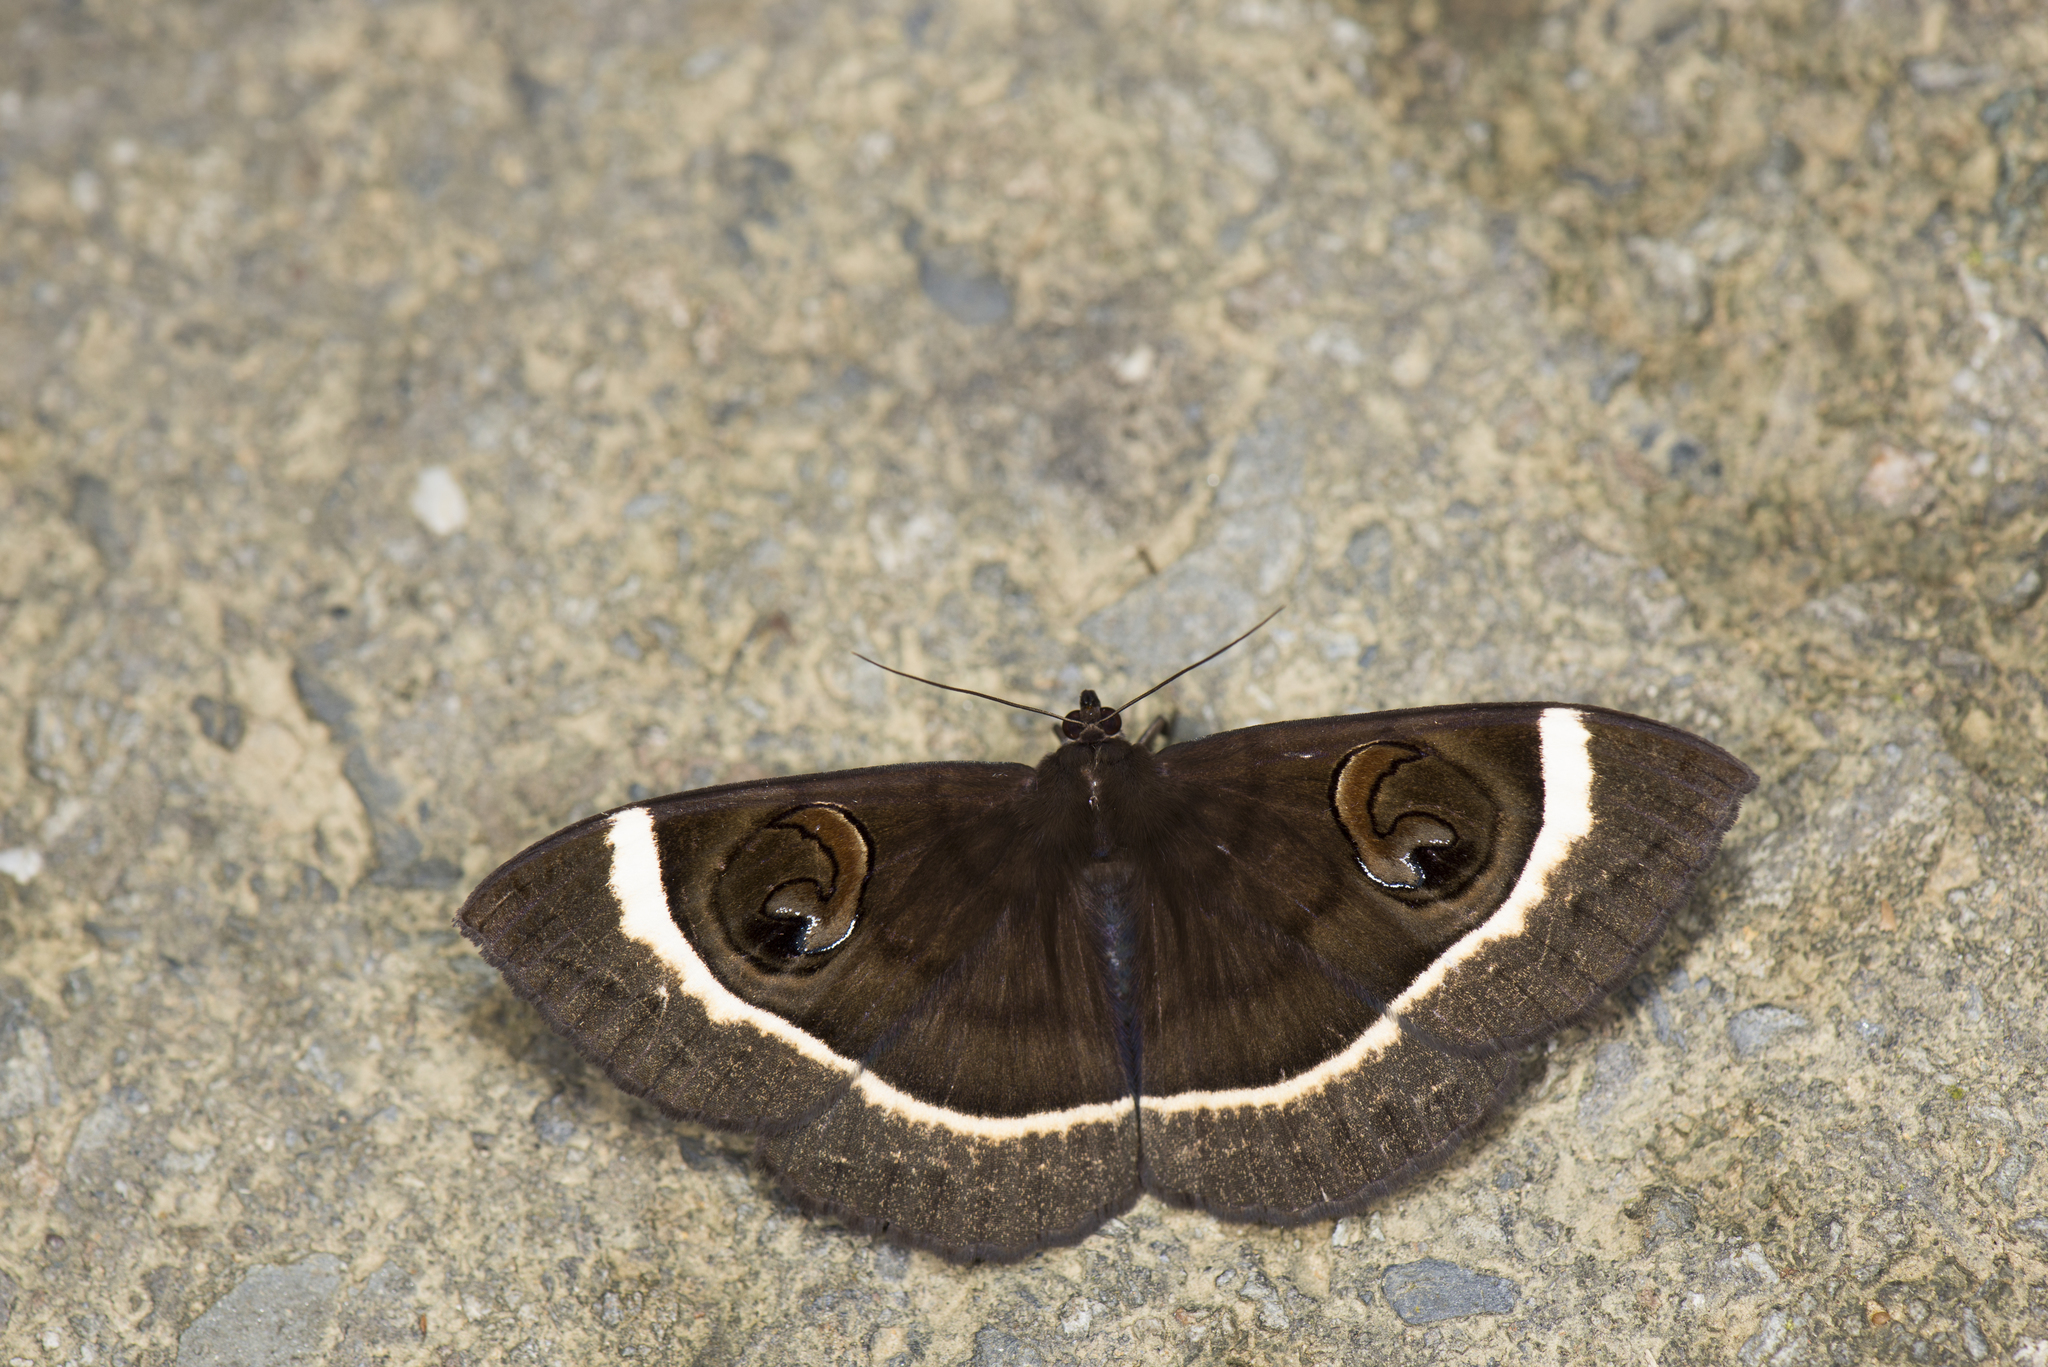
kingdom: Animalia
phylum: Arthropoda
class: Insecta
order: Lepidoptera
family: Erebidae
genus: Erebus
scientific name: Erebus gemmans
